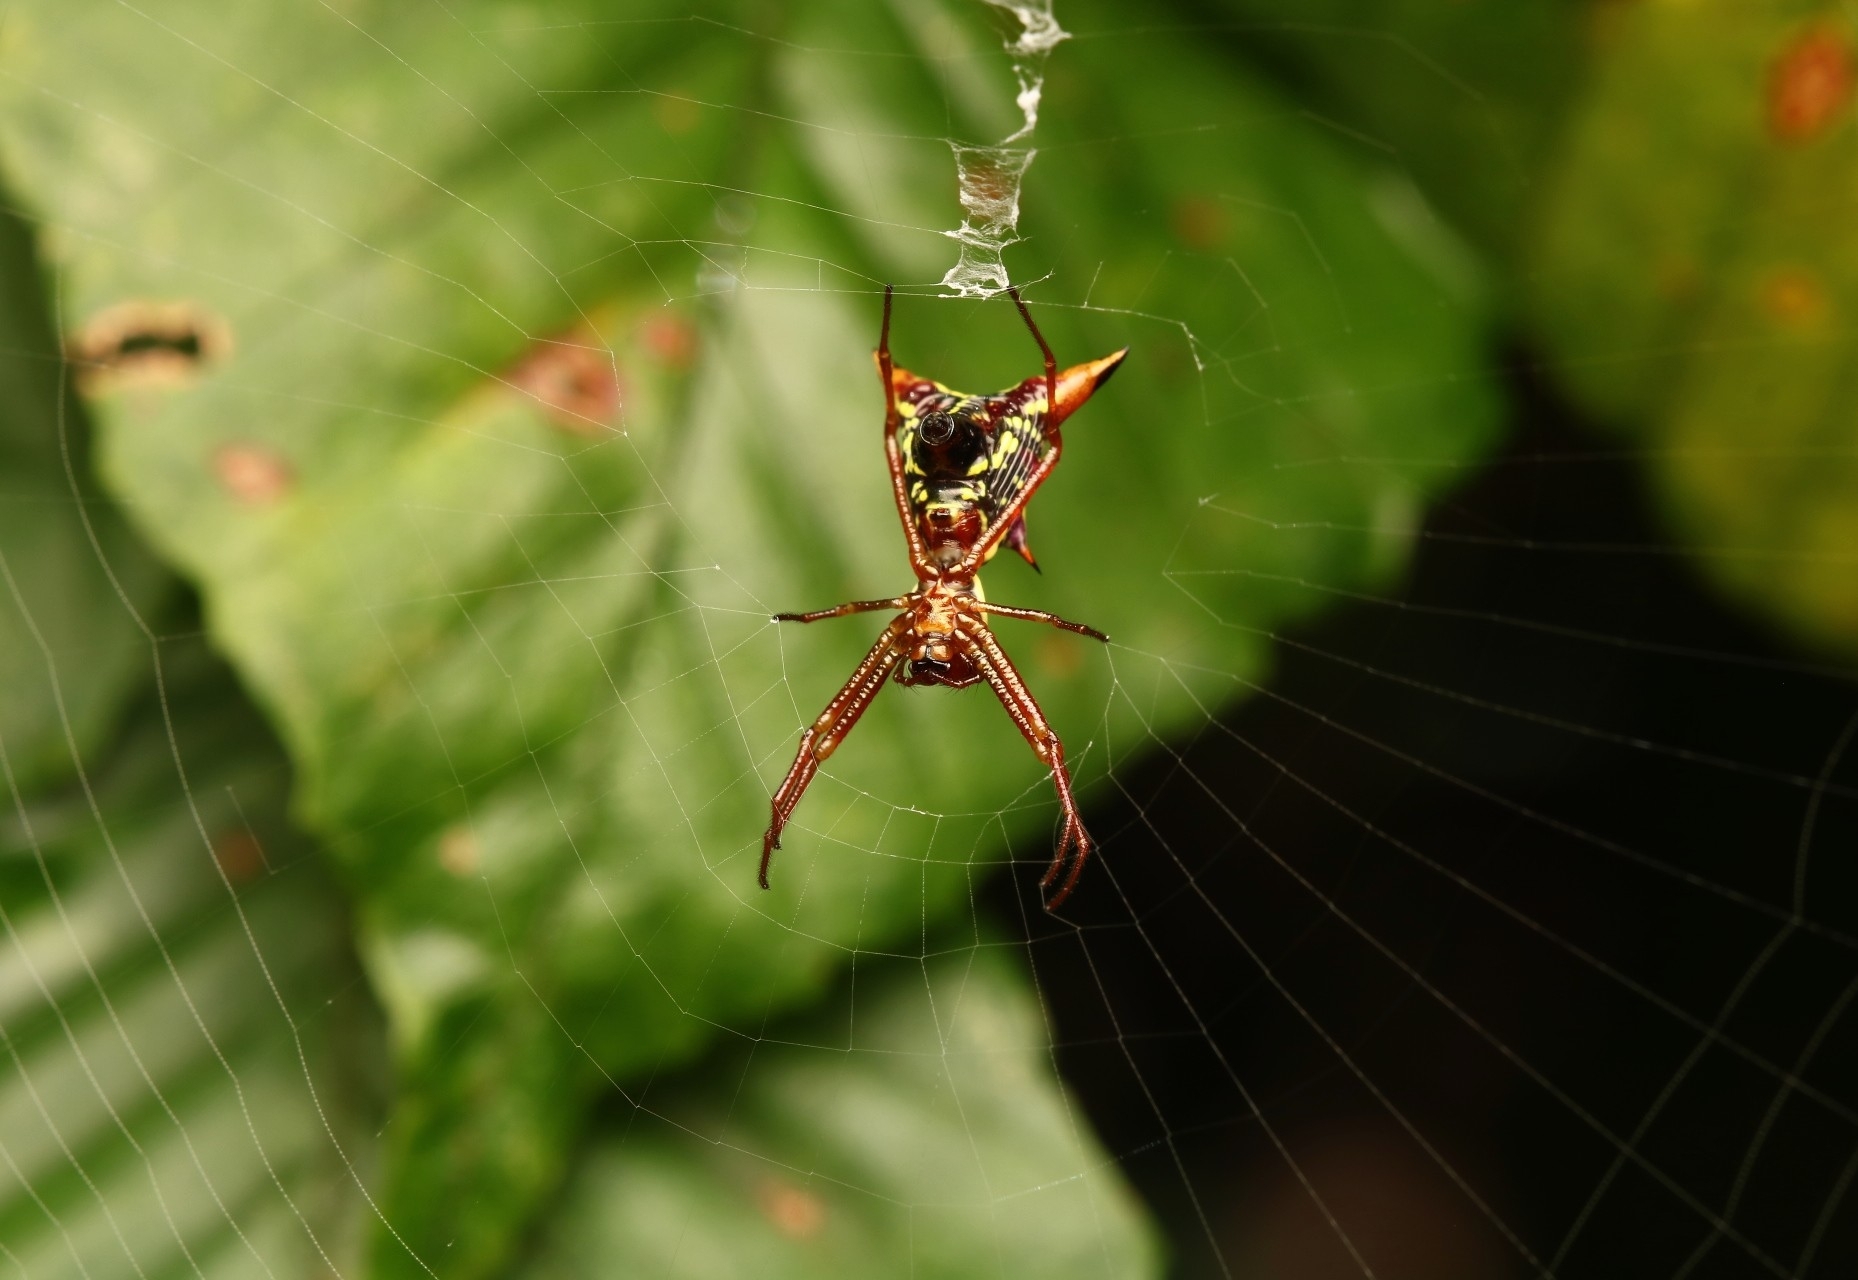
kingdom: Animalia
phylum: Arthropoda
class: Arachnida
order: Araneae
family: Araneidae
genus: Micrathena
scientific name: Micrathena sagittata
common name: Orb weavers
